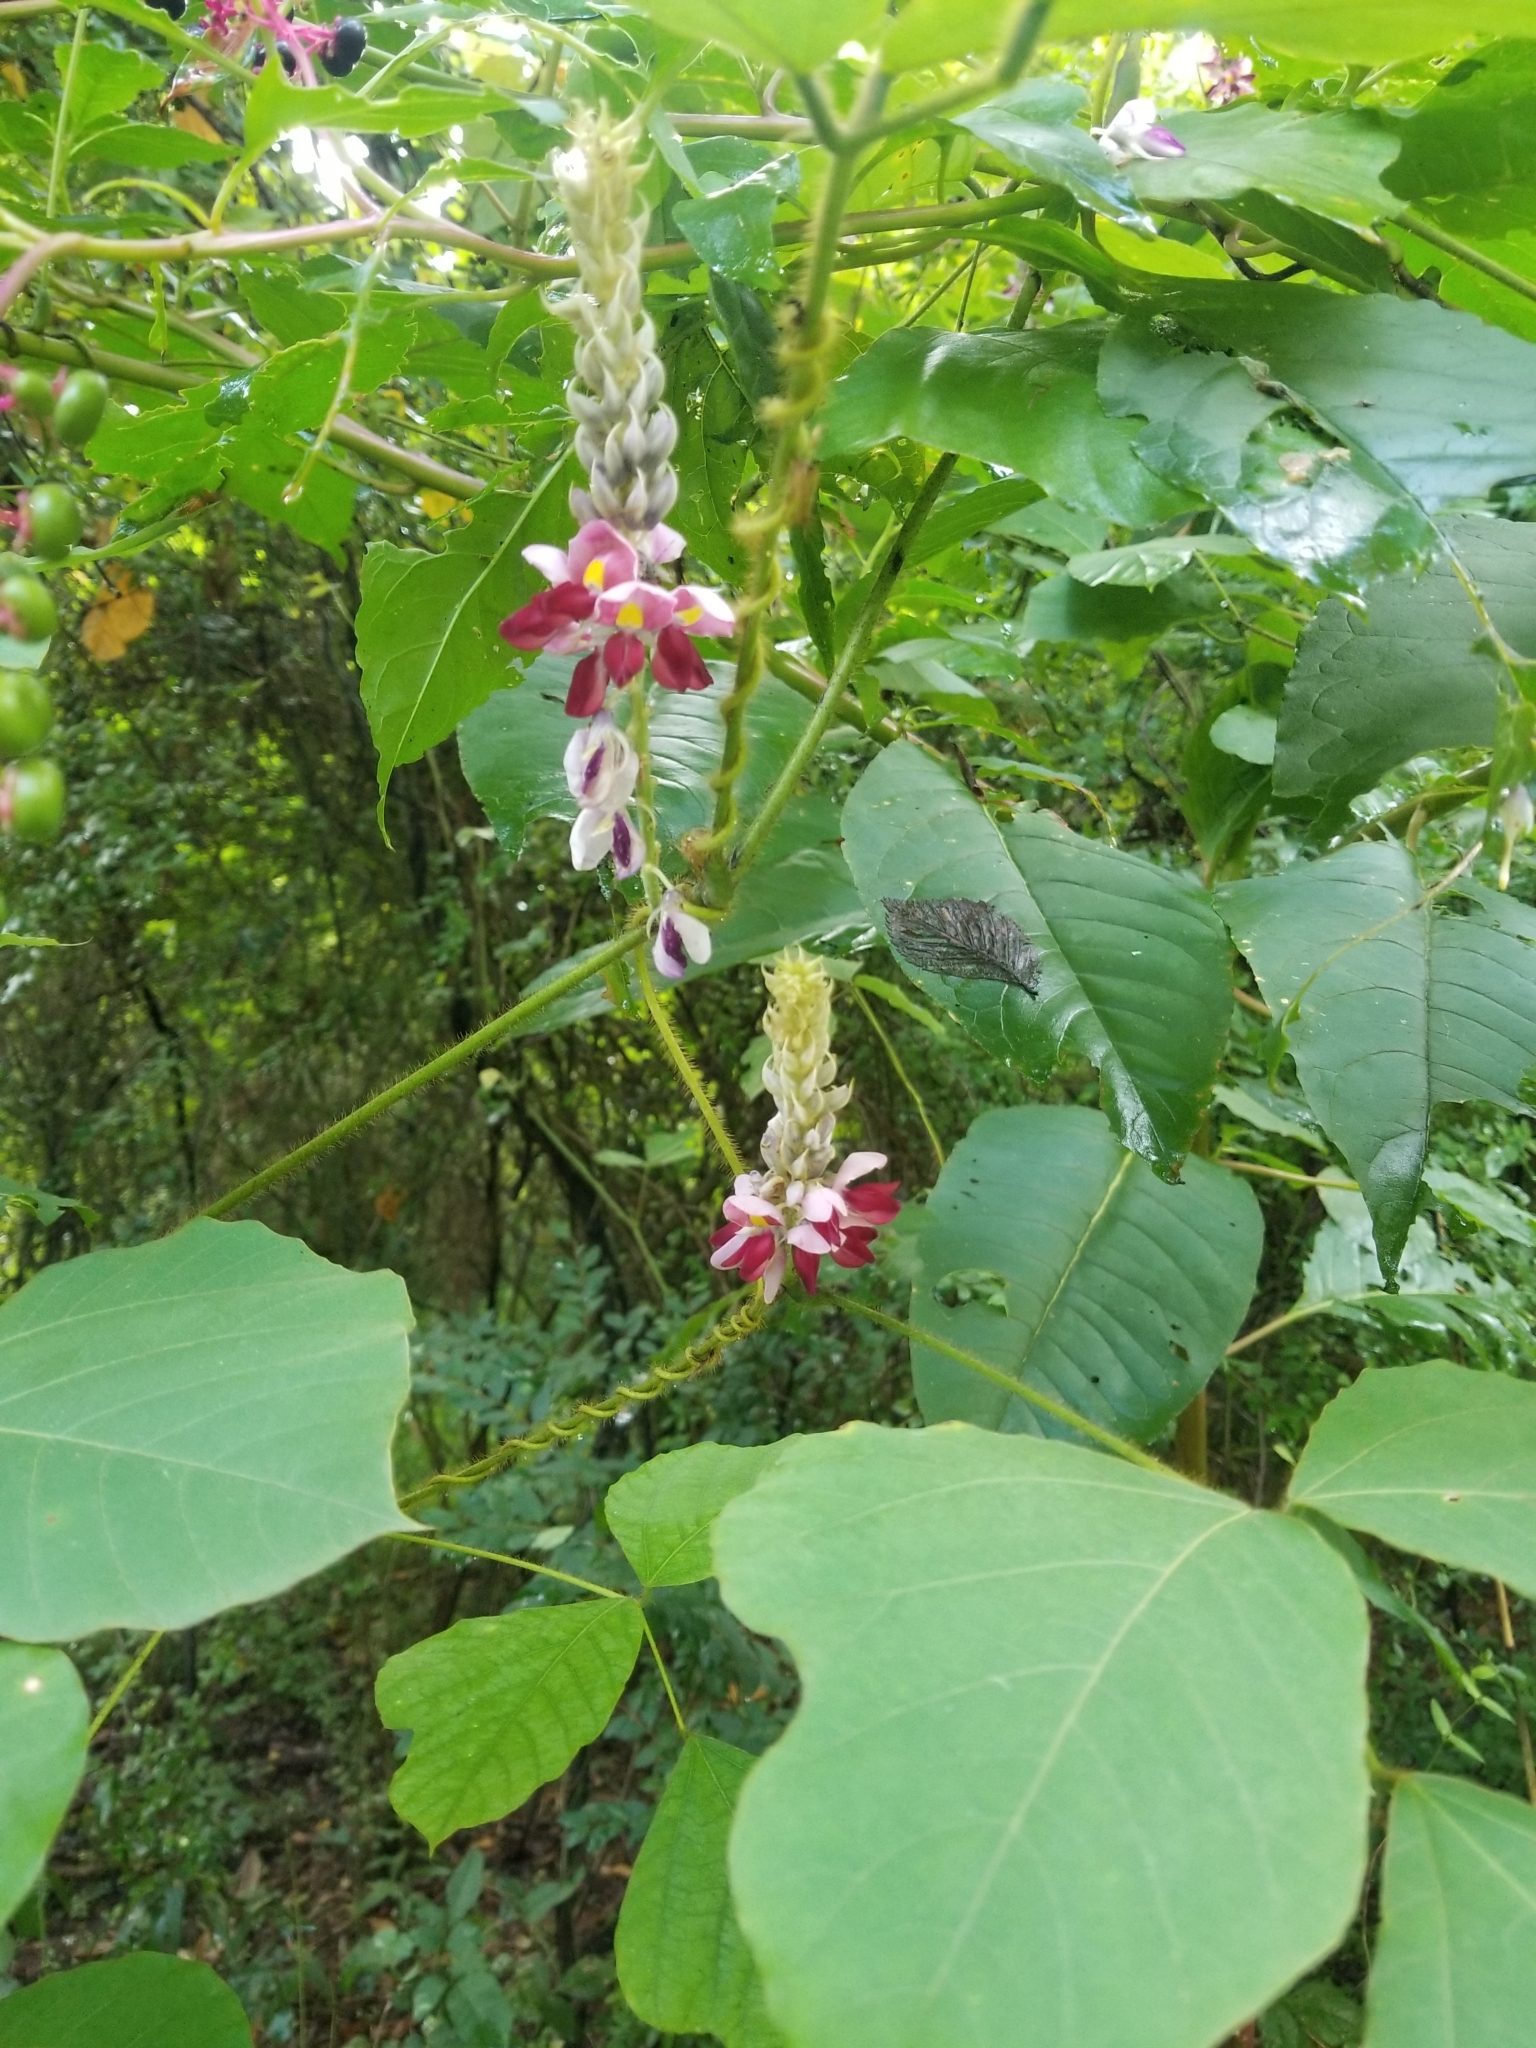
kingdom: Plantae
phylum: Tracheophyta
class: Magnoliopsida
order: Fabales
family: Fabaceae
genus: Pueraria
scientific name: Pueraria montana
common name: Kudzu
